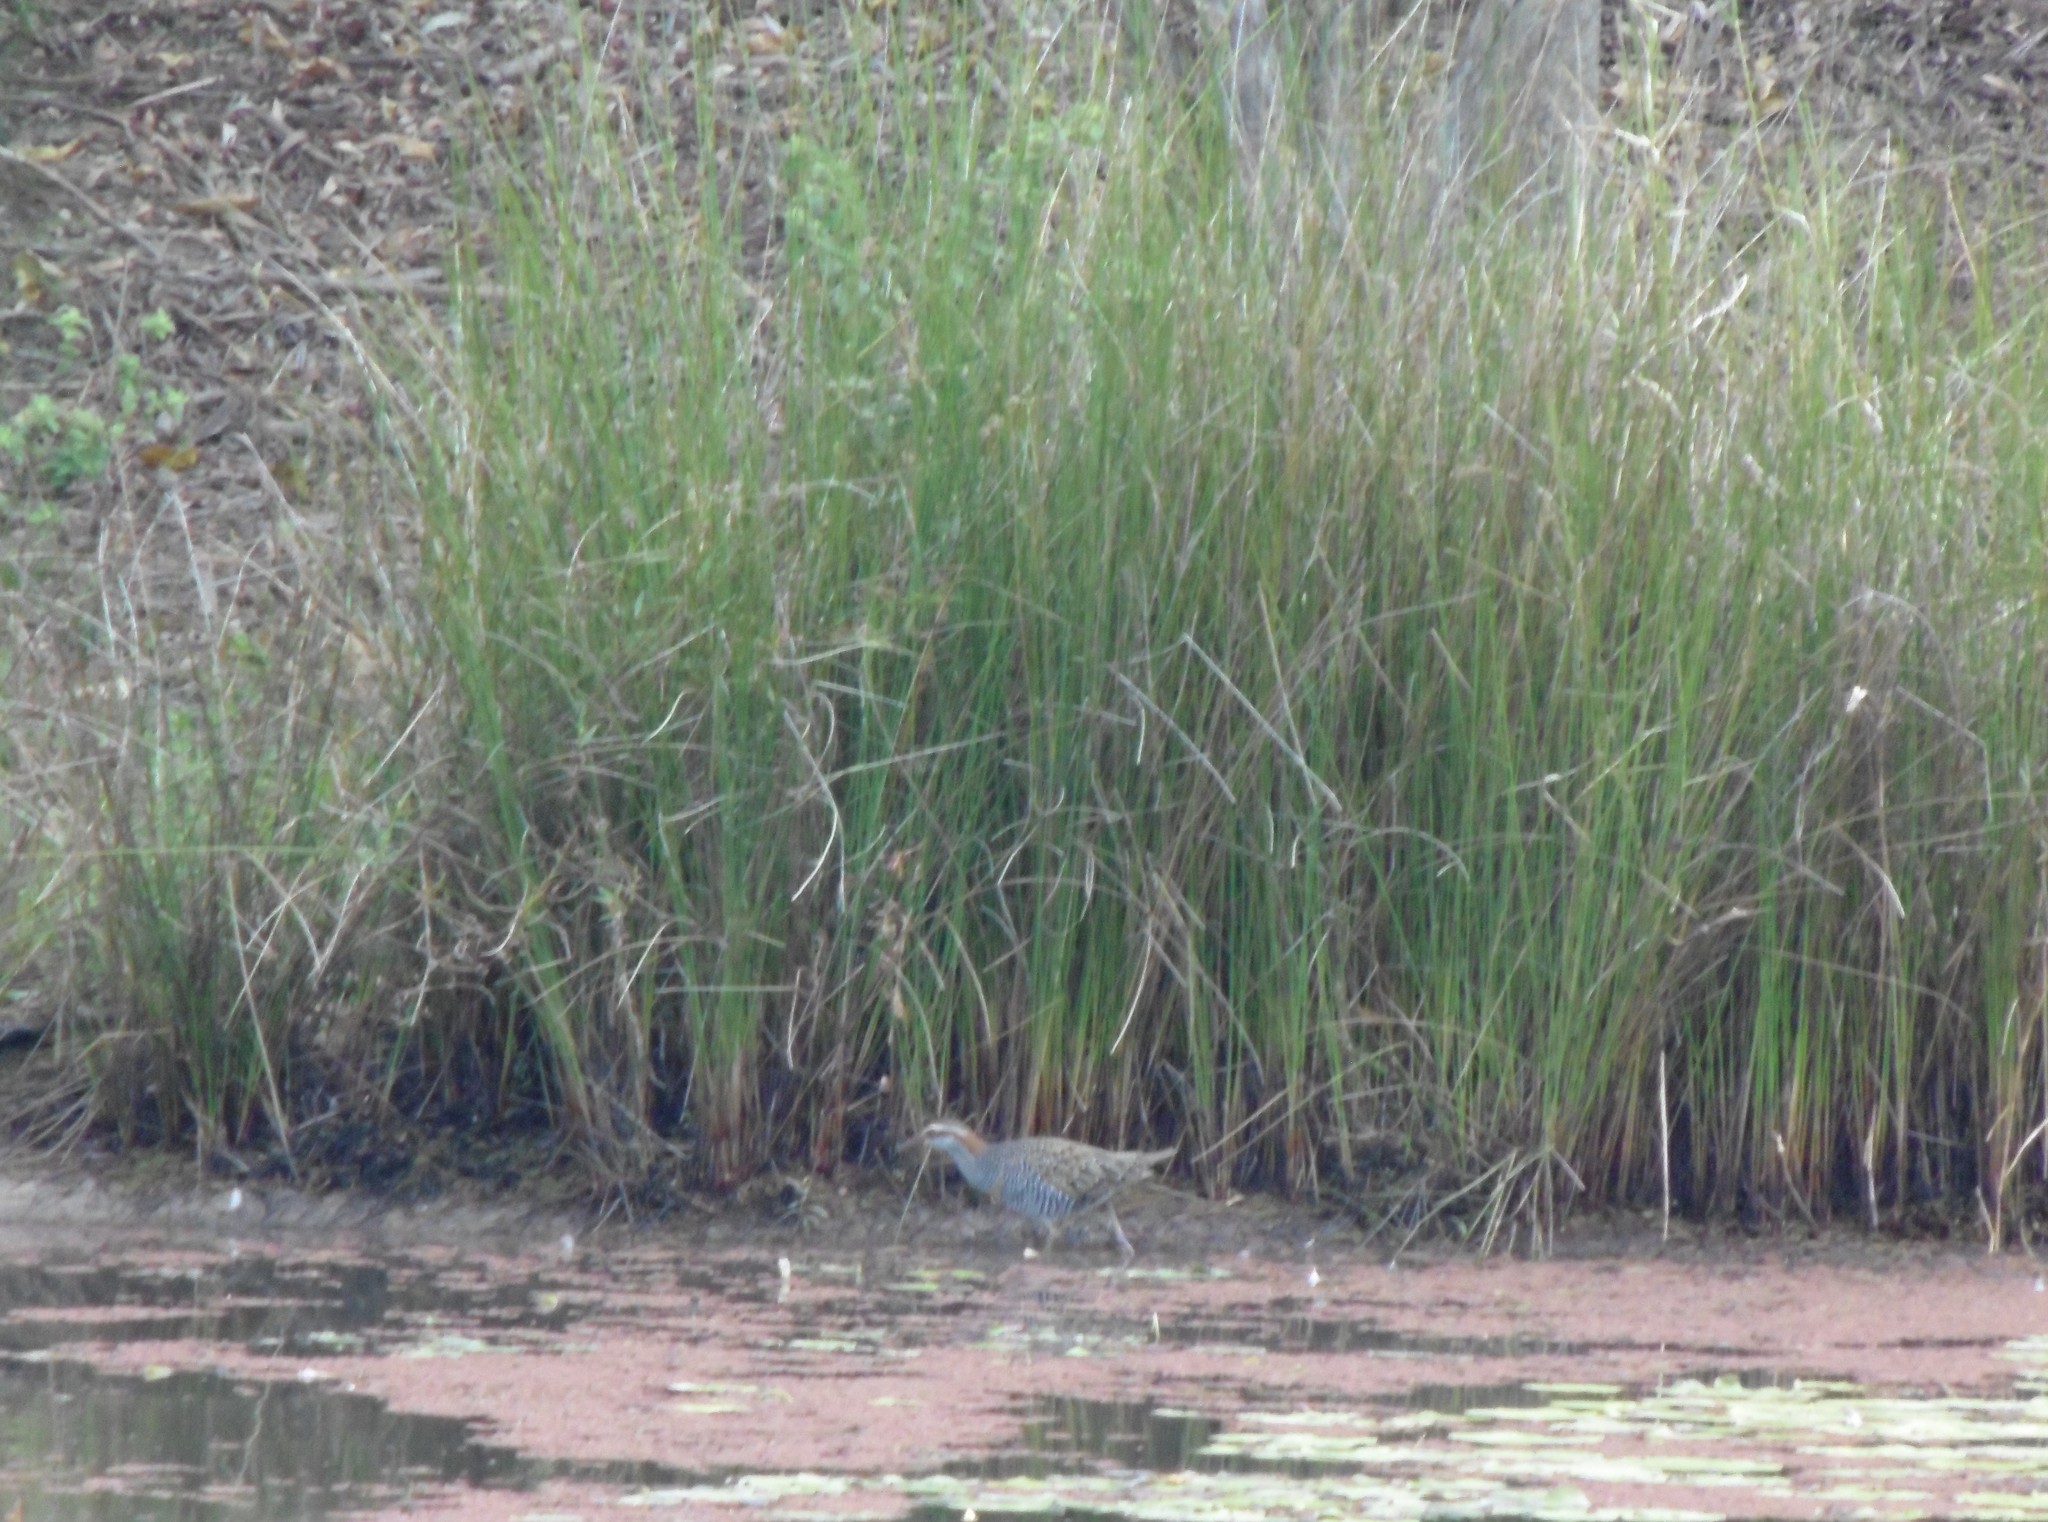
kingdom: Animalia
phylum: Chordata
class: Aves
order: Gruiformes
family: Rallidae
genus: Gallirallus
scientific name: Gallirallus philippensis
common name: Buff-banded rail
